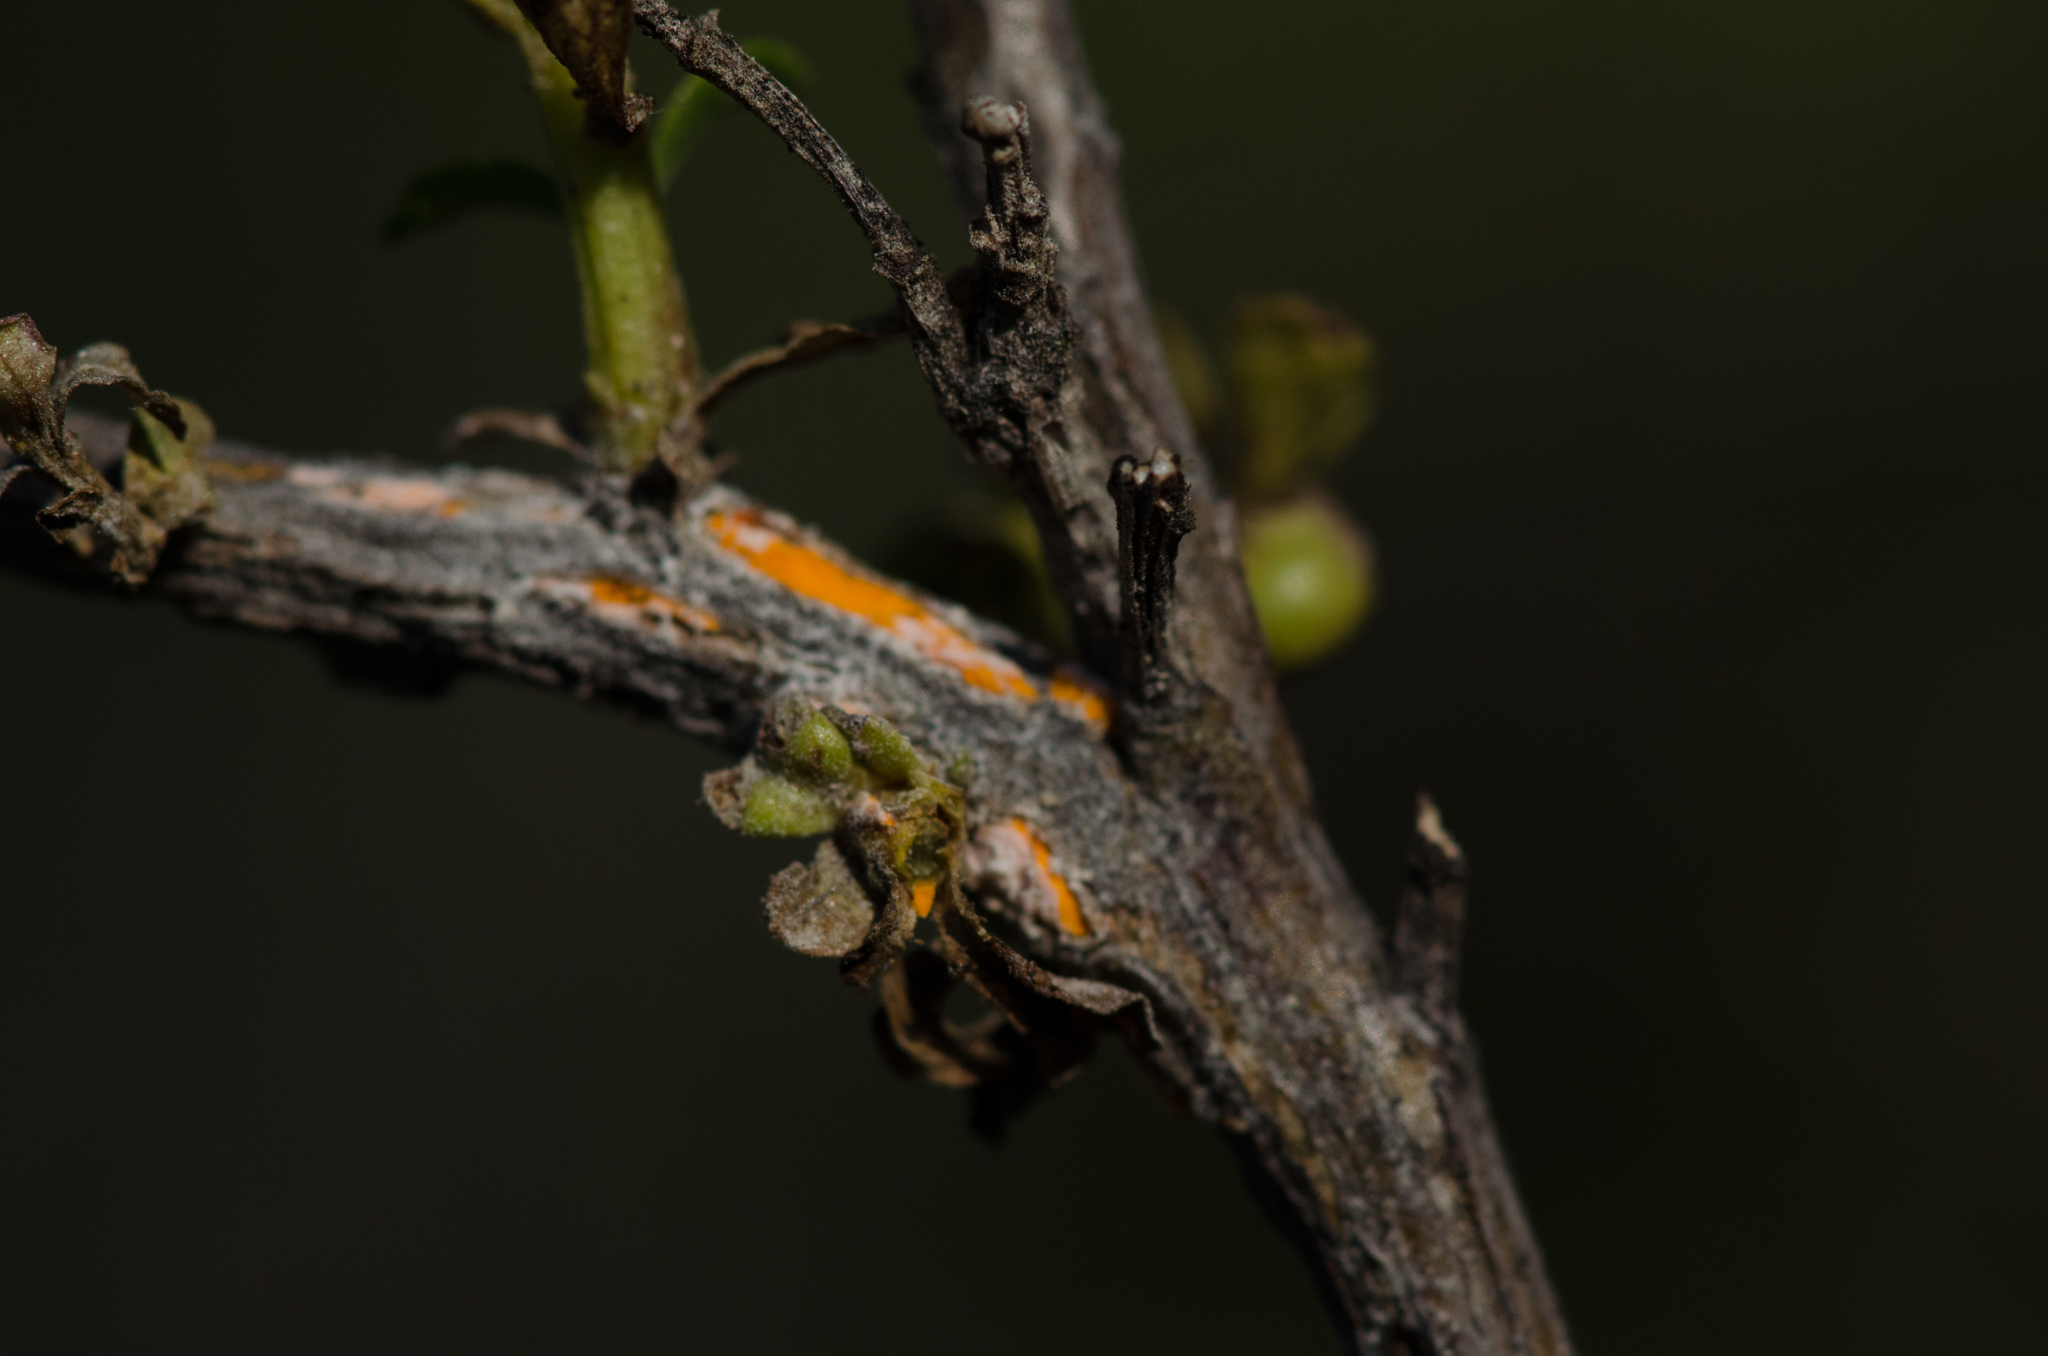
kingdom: Fungi
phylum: Basidiomycota
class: Pucciniomycetes
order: Pucciniales
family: Pucciniaceae
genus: Eriosporangium
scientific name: Eriosporangium evadens
